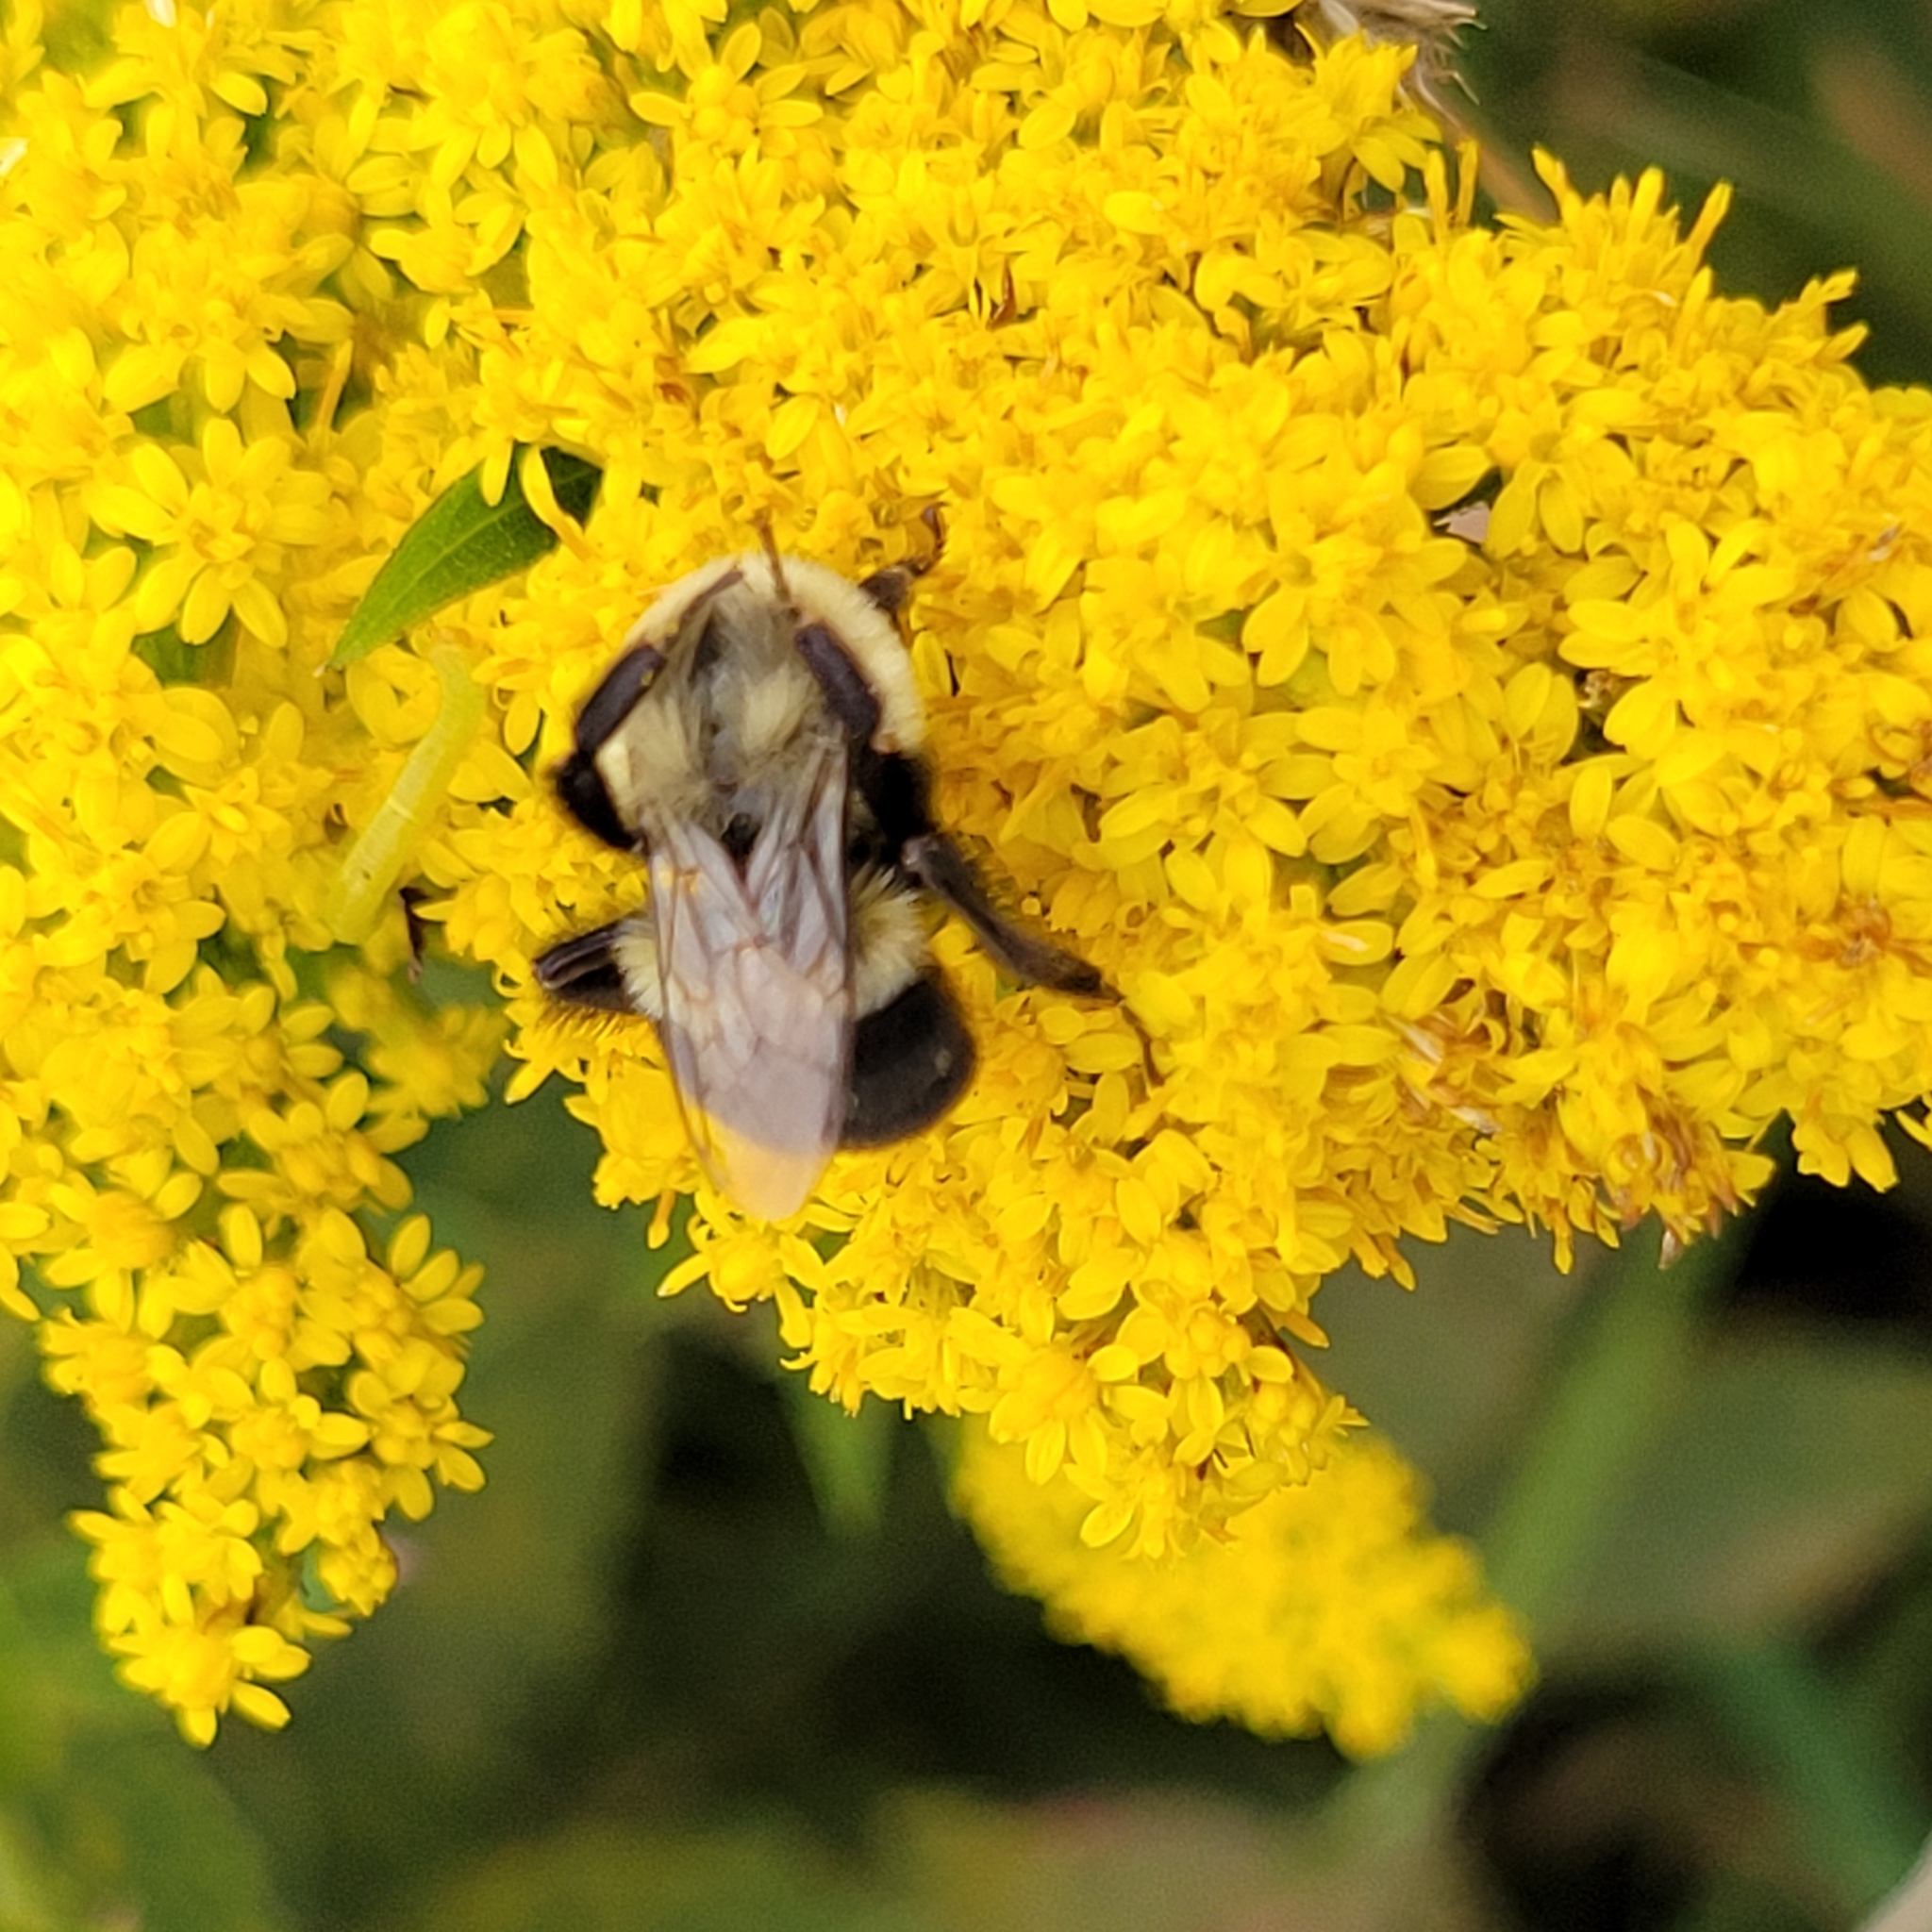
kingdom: Animalia
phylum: Arthropoda
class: Insecta
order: Hymenoptera
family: Apidae
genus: Bombus
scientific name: Bombus impatiens
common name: Common eastern bumble bee
